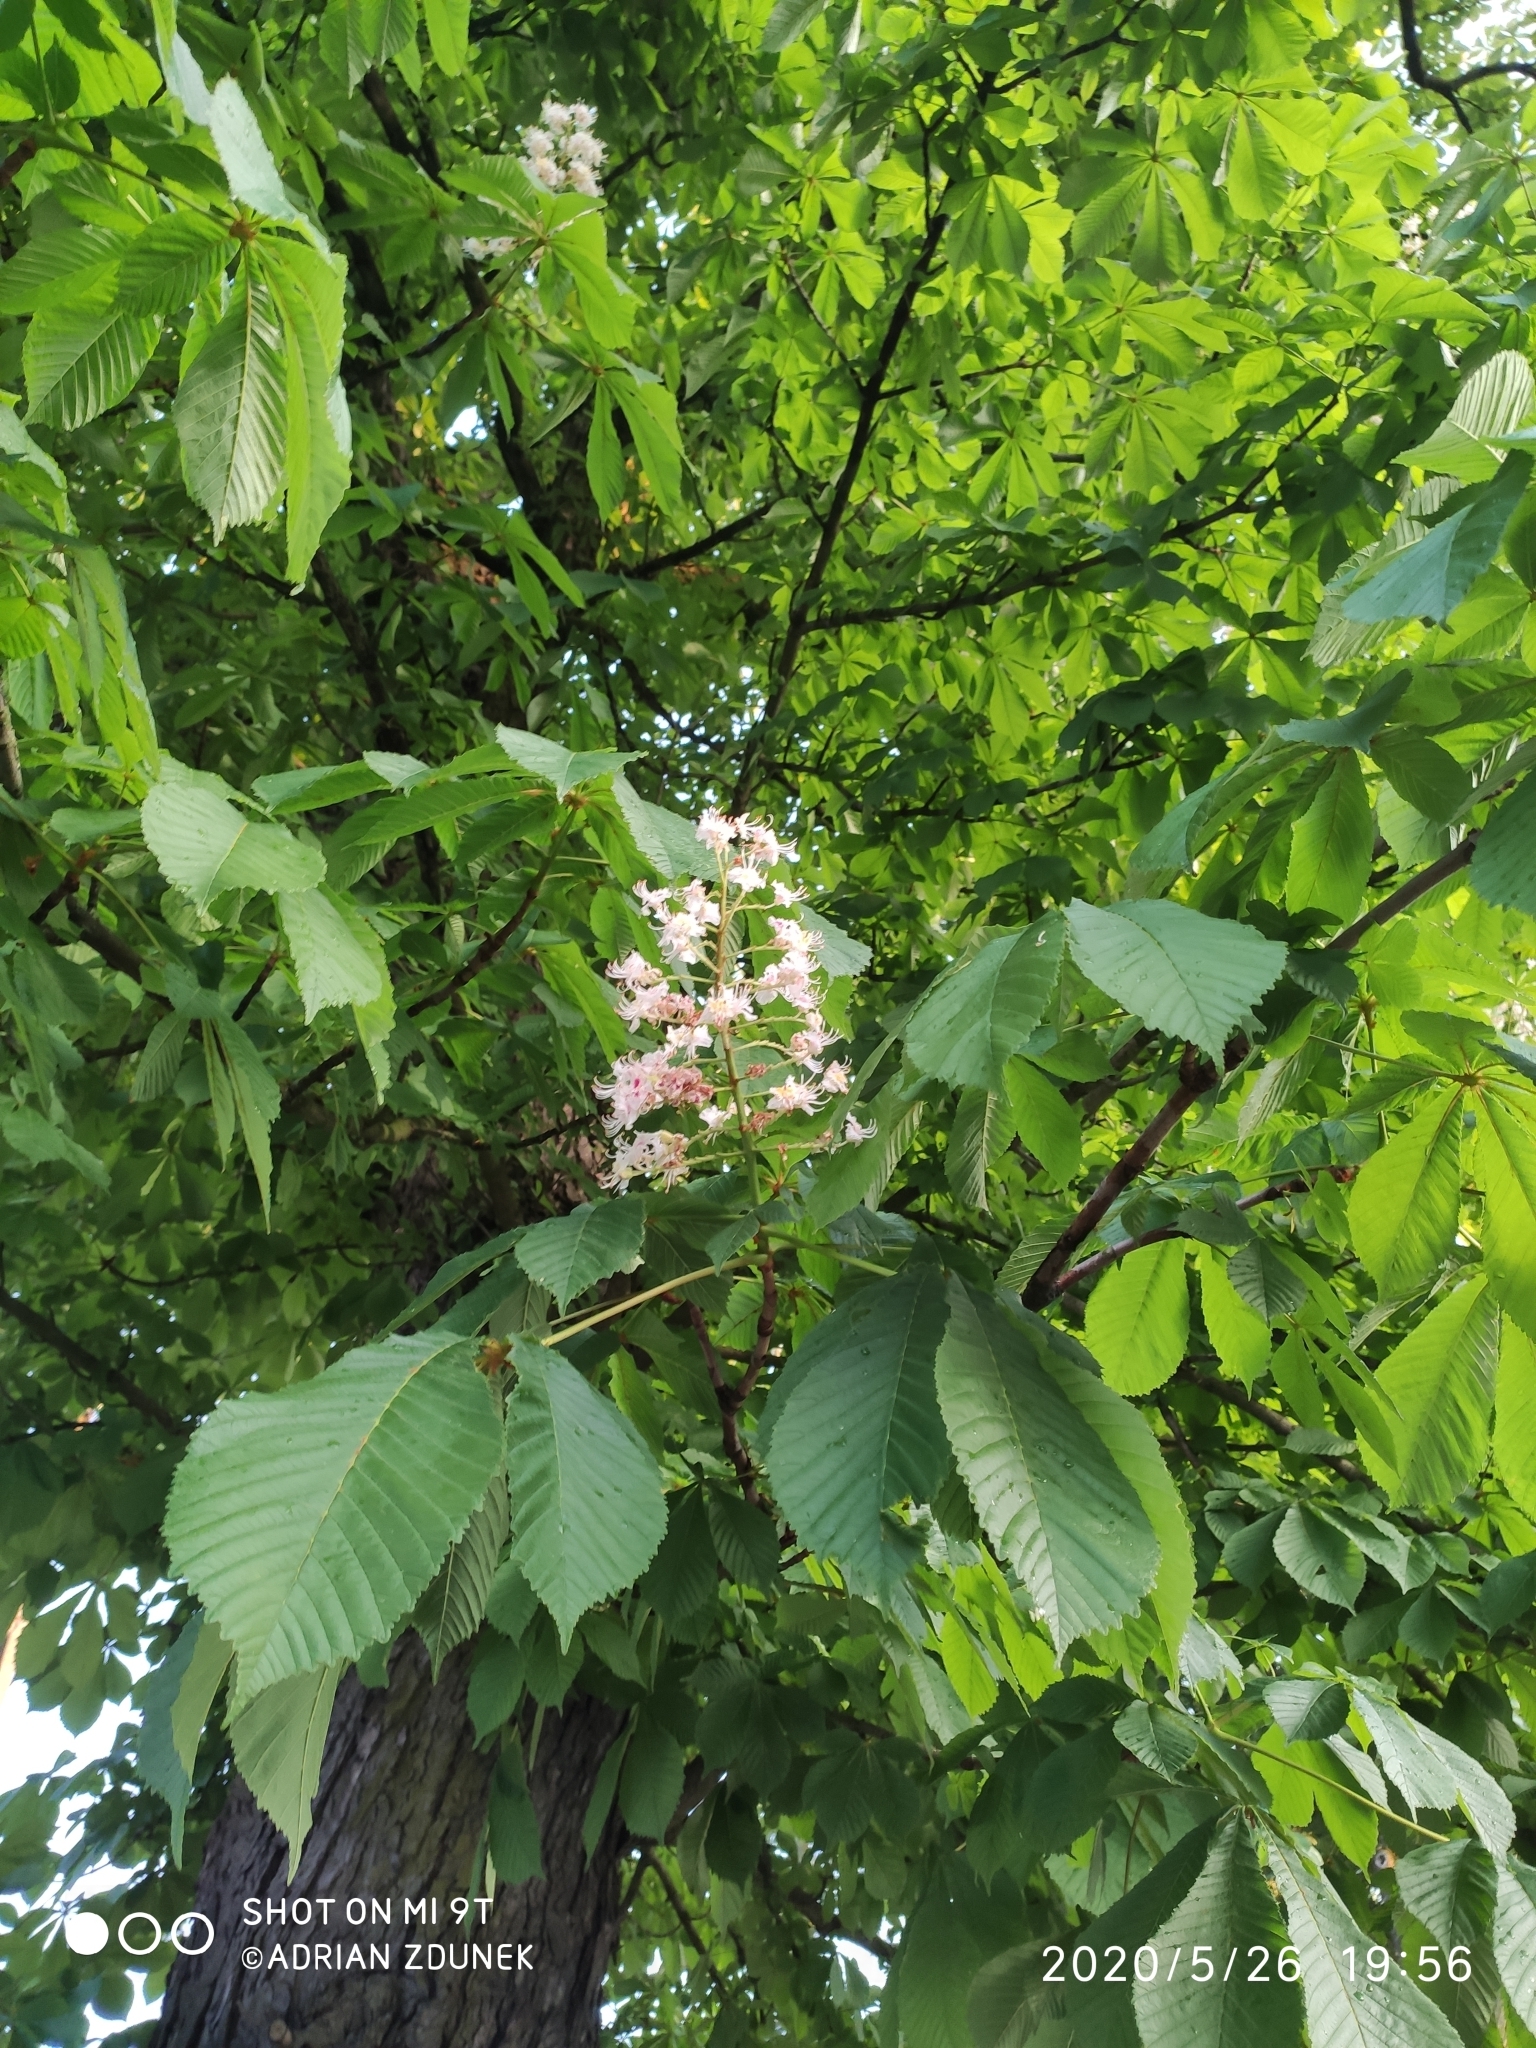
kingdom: Plantae
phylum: Tracheophyta
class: Magnoliopsida
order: Sapindales
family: Sapindaceae
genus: Aesculus
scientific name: Aesculus hippocastanum
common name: Horse-chestnut
